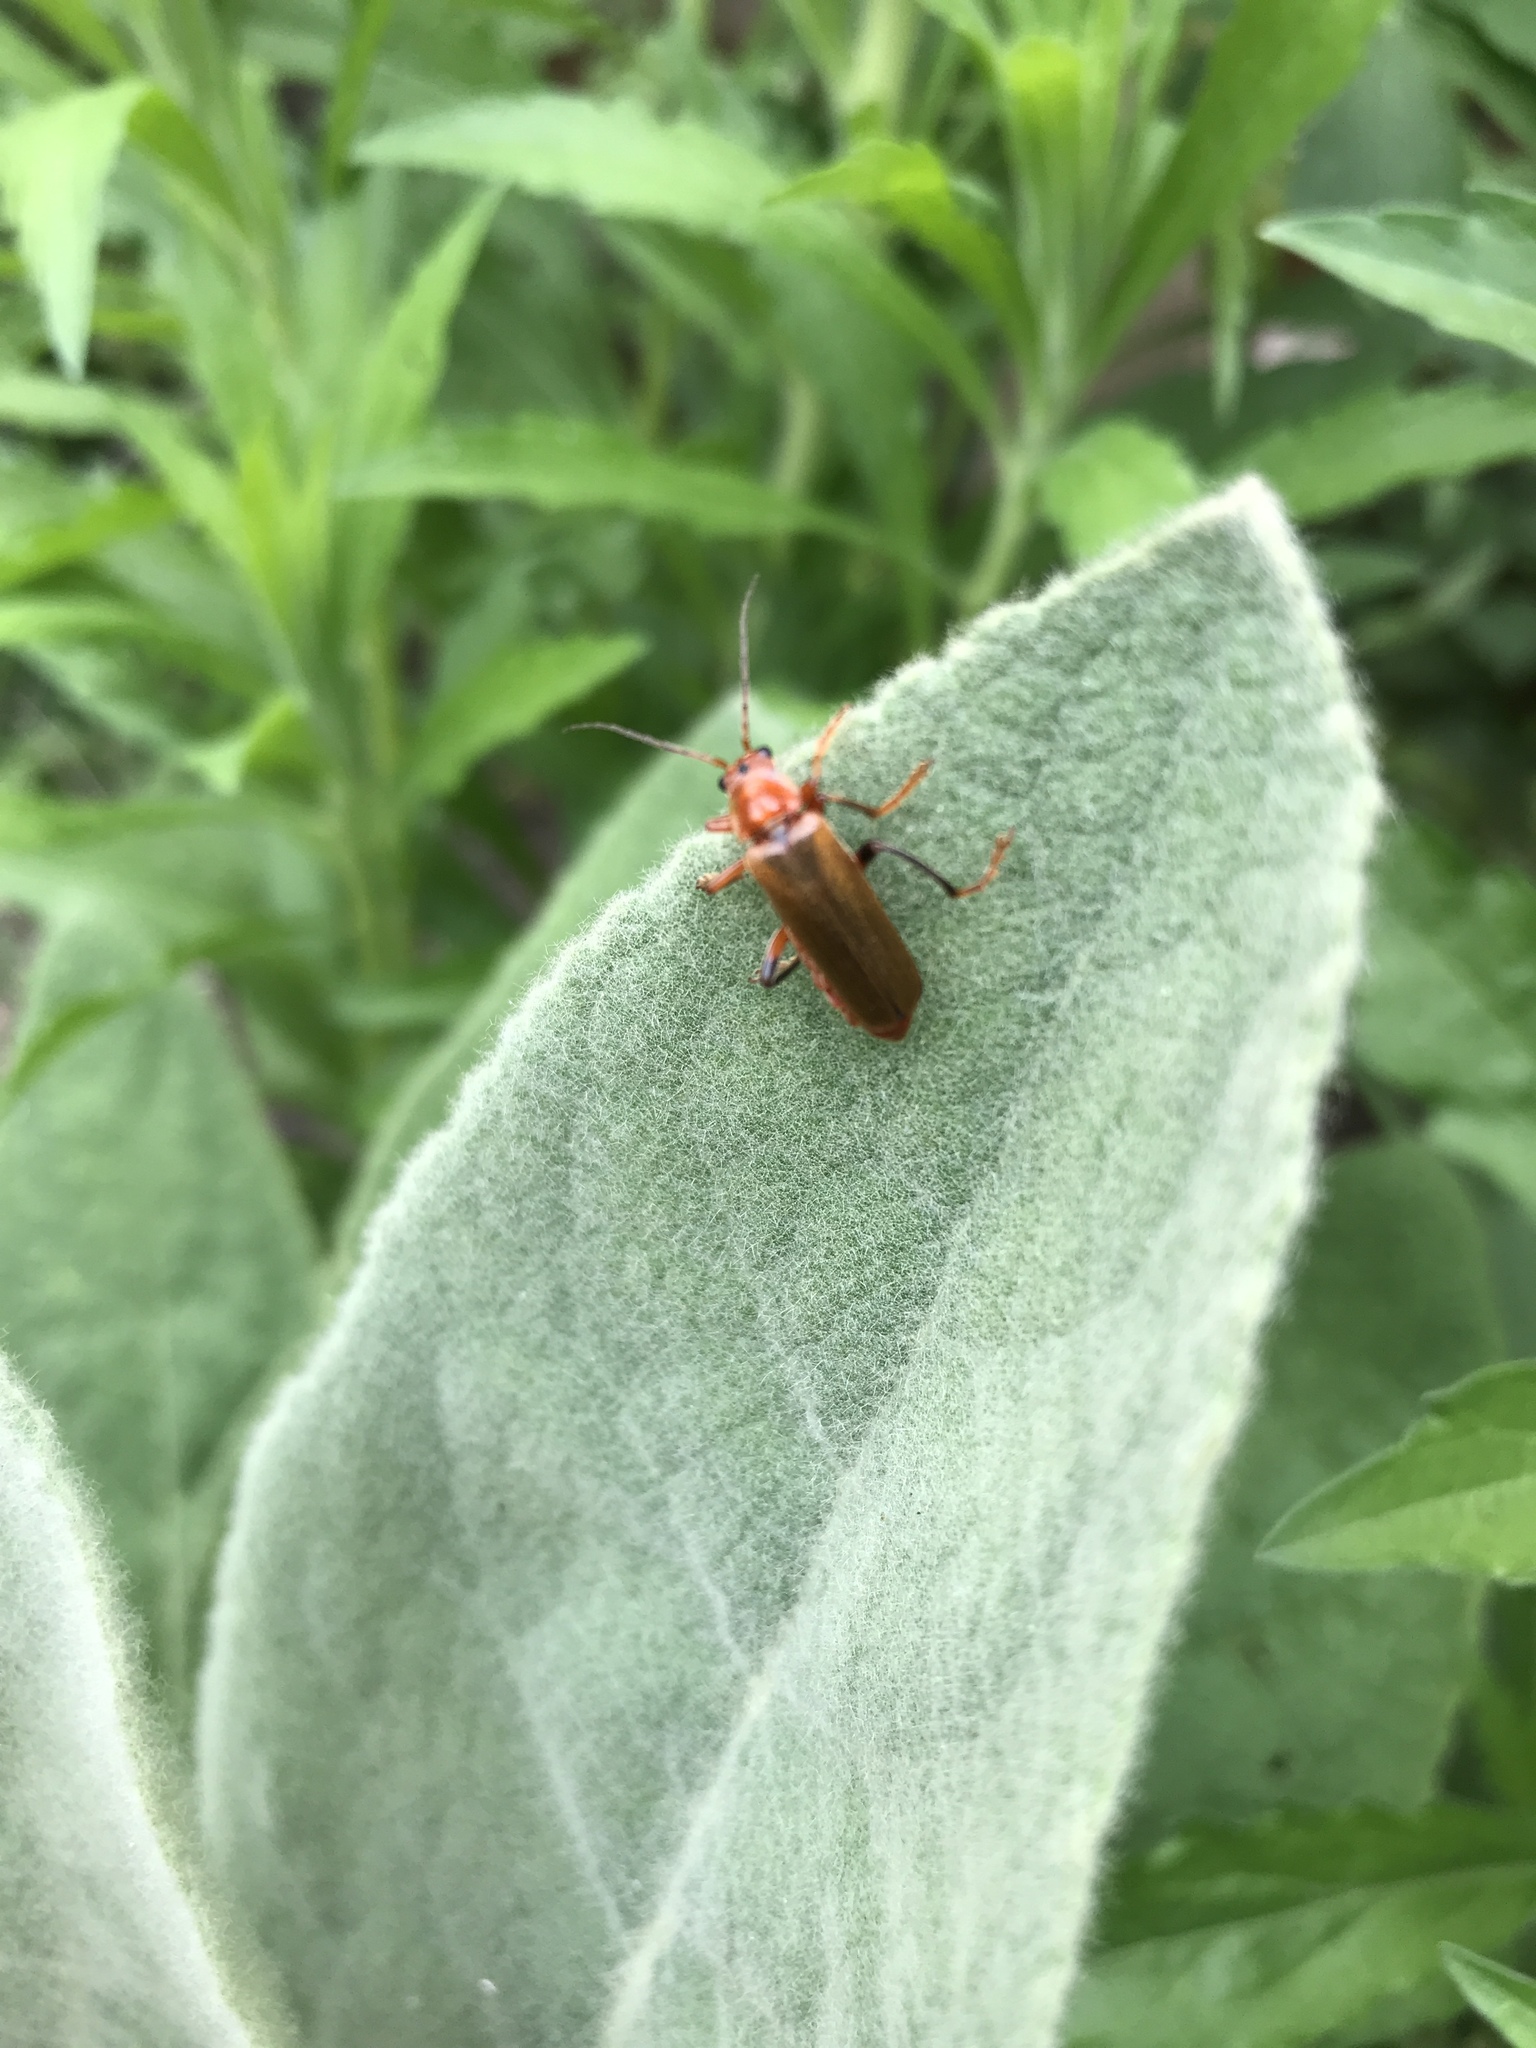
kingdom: Animalia
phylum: Arthropoda
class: Insecta
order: Coleoptera
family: Cantharidae
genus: Cantharis
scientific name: Cantharis livida
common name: Livid soldier beetle
